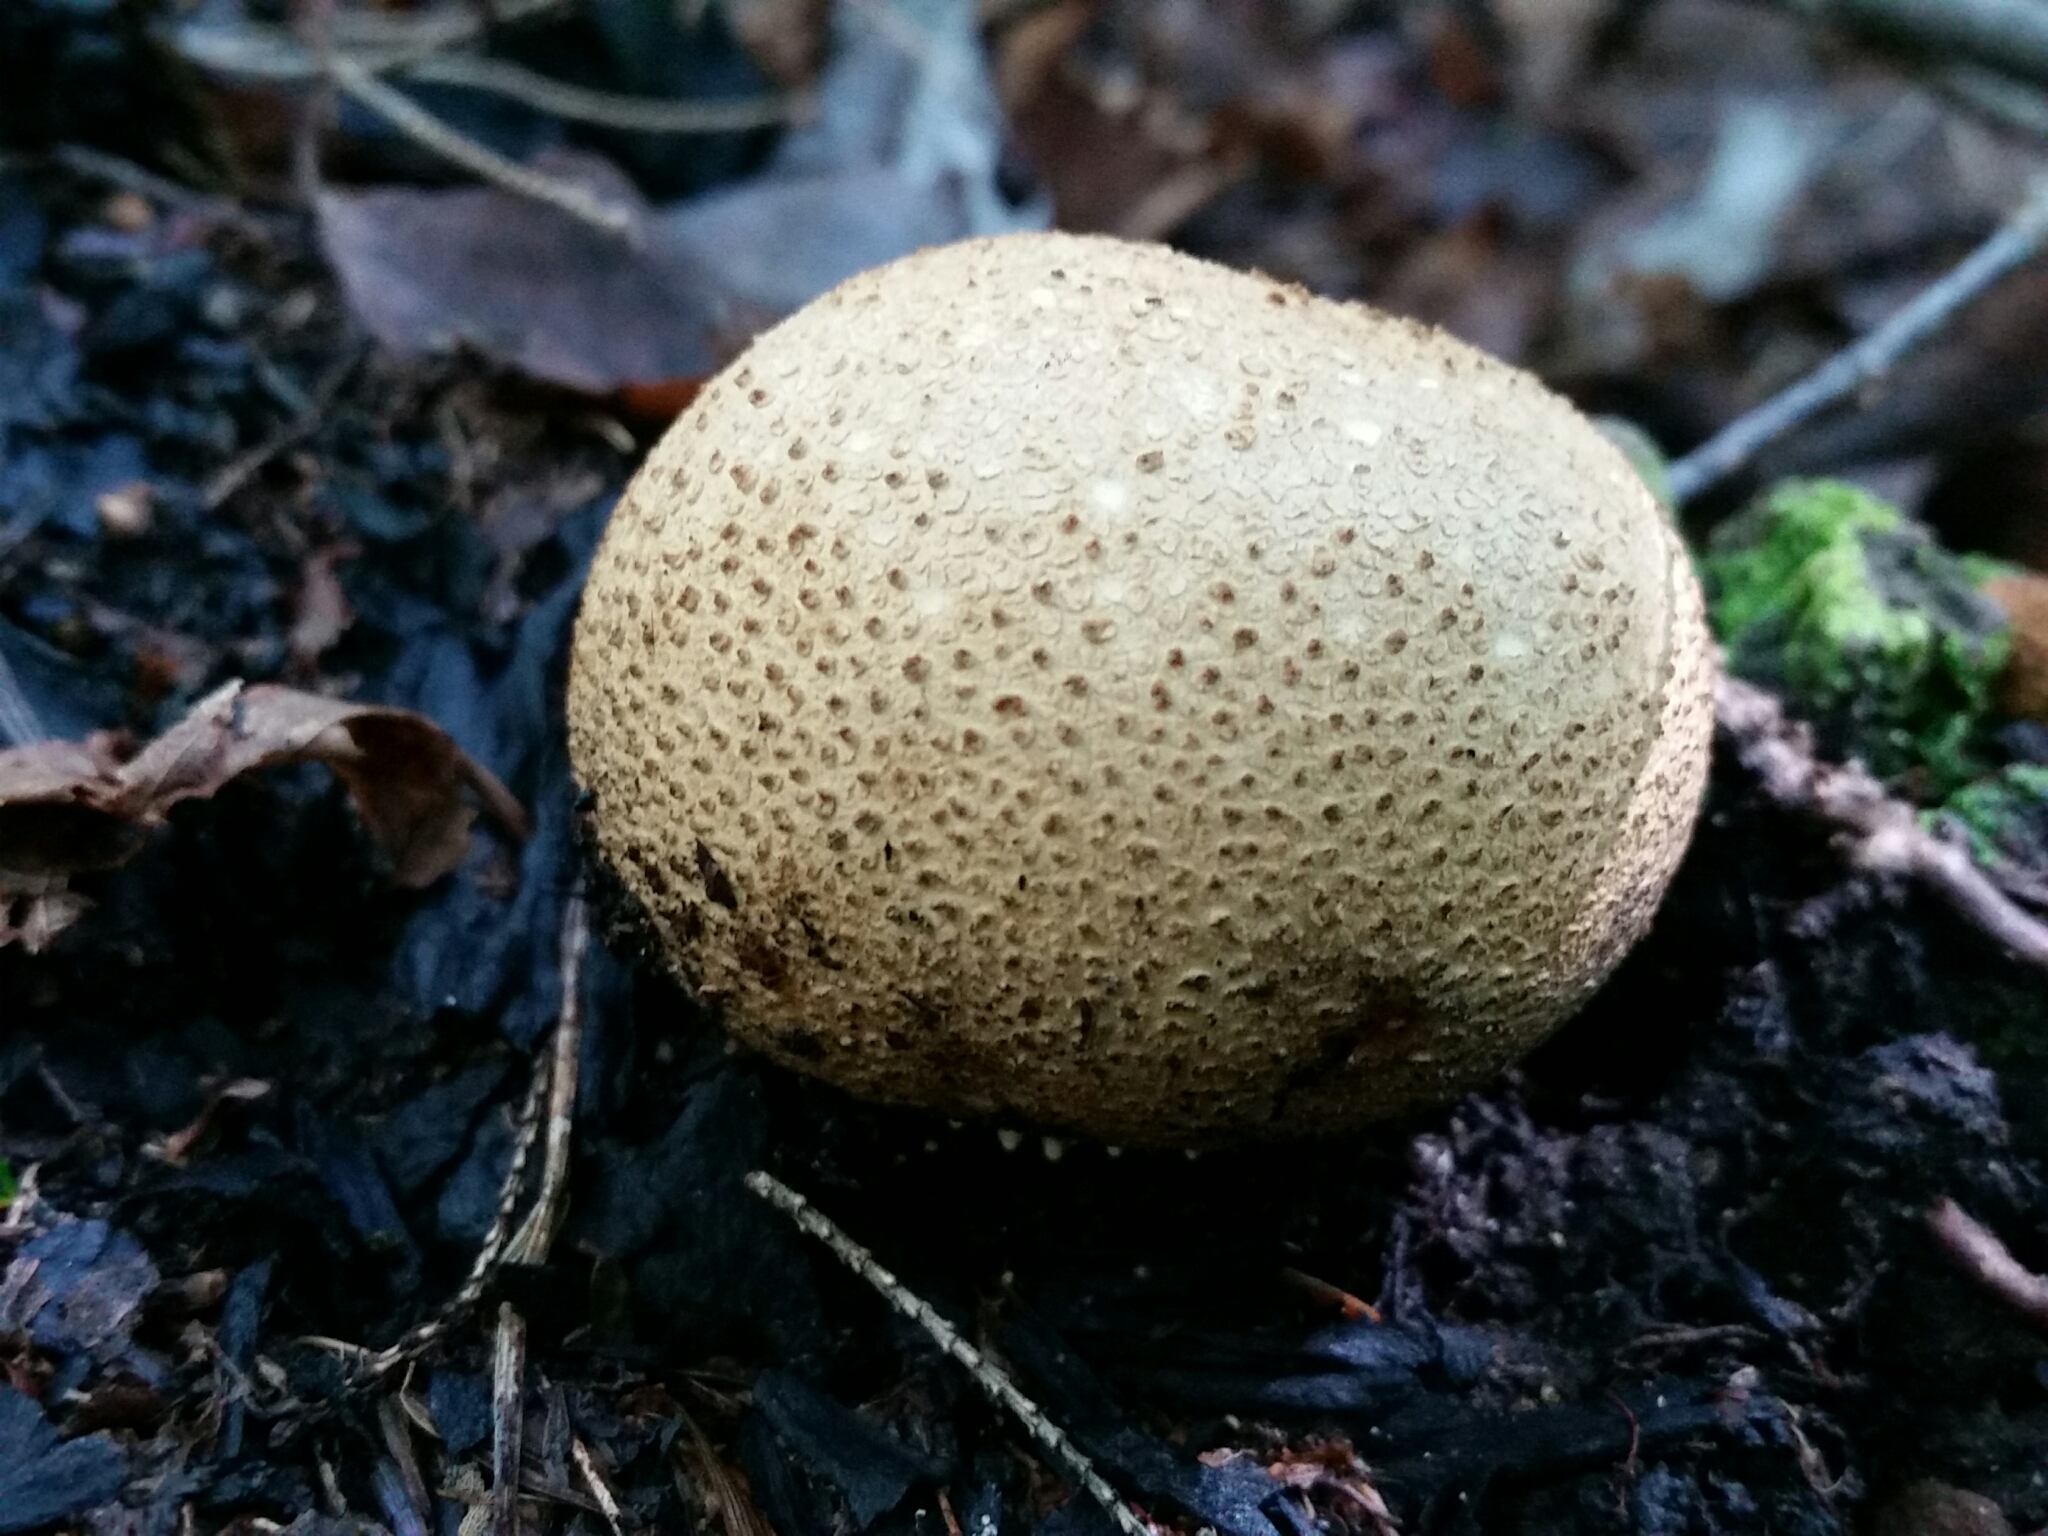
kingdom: Fungi
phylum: Basidiomycota
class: Agaricomycetes
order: Boletales
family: Sclerodermataceae
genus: Scleroderma
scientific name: Scleroderma citrinum
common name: Common earthball
